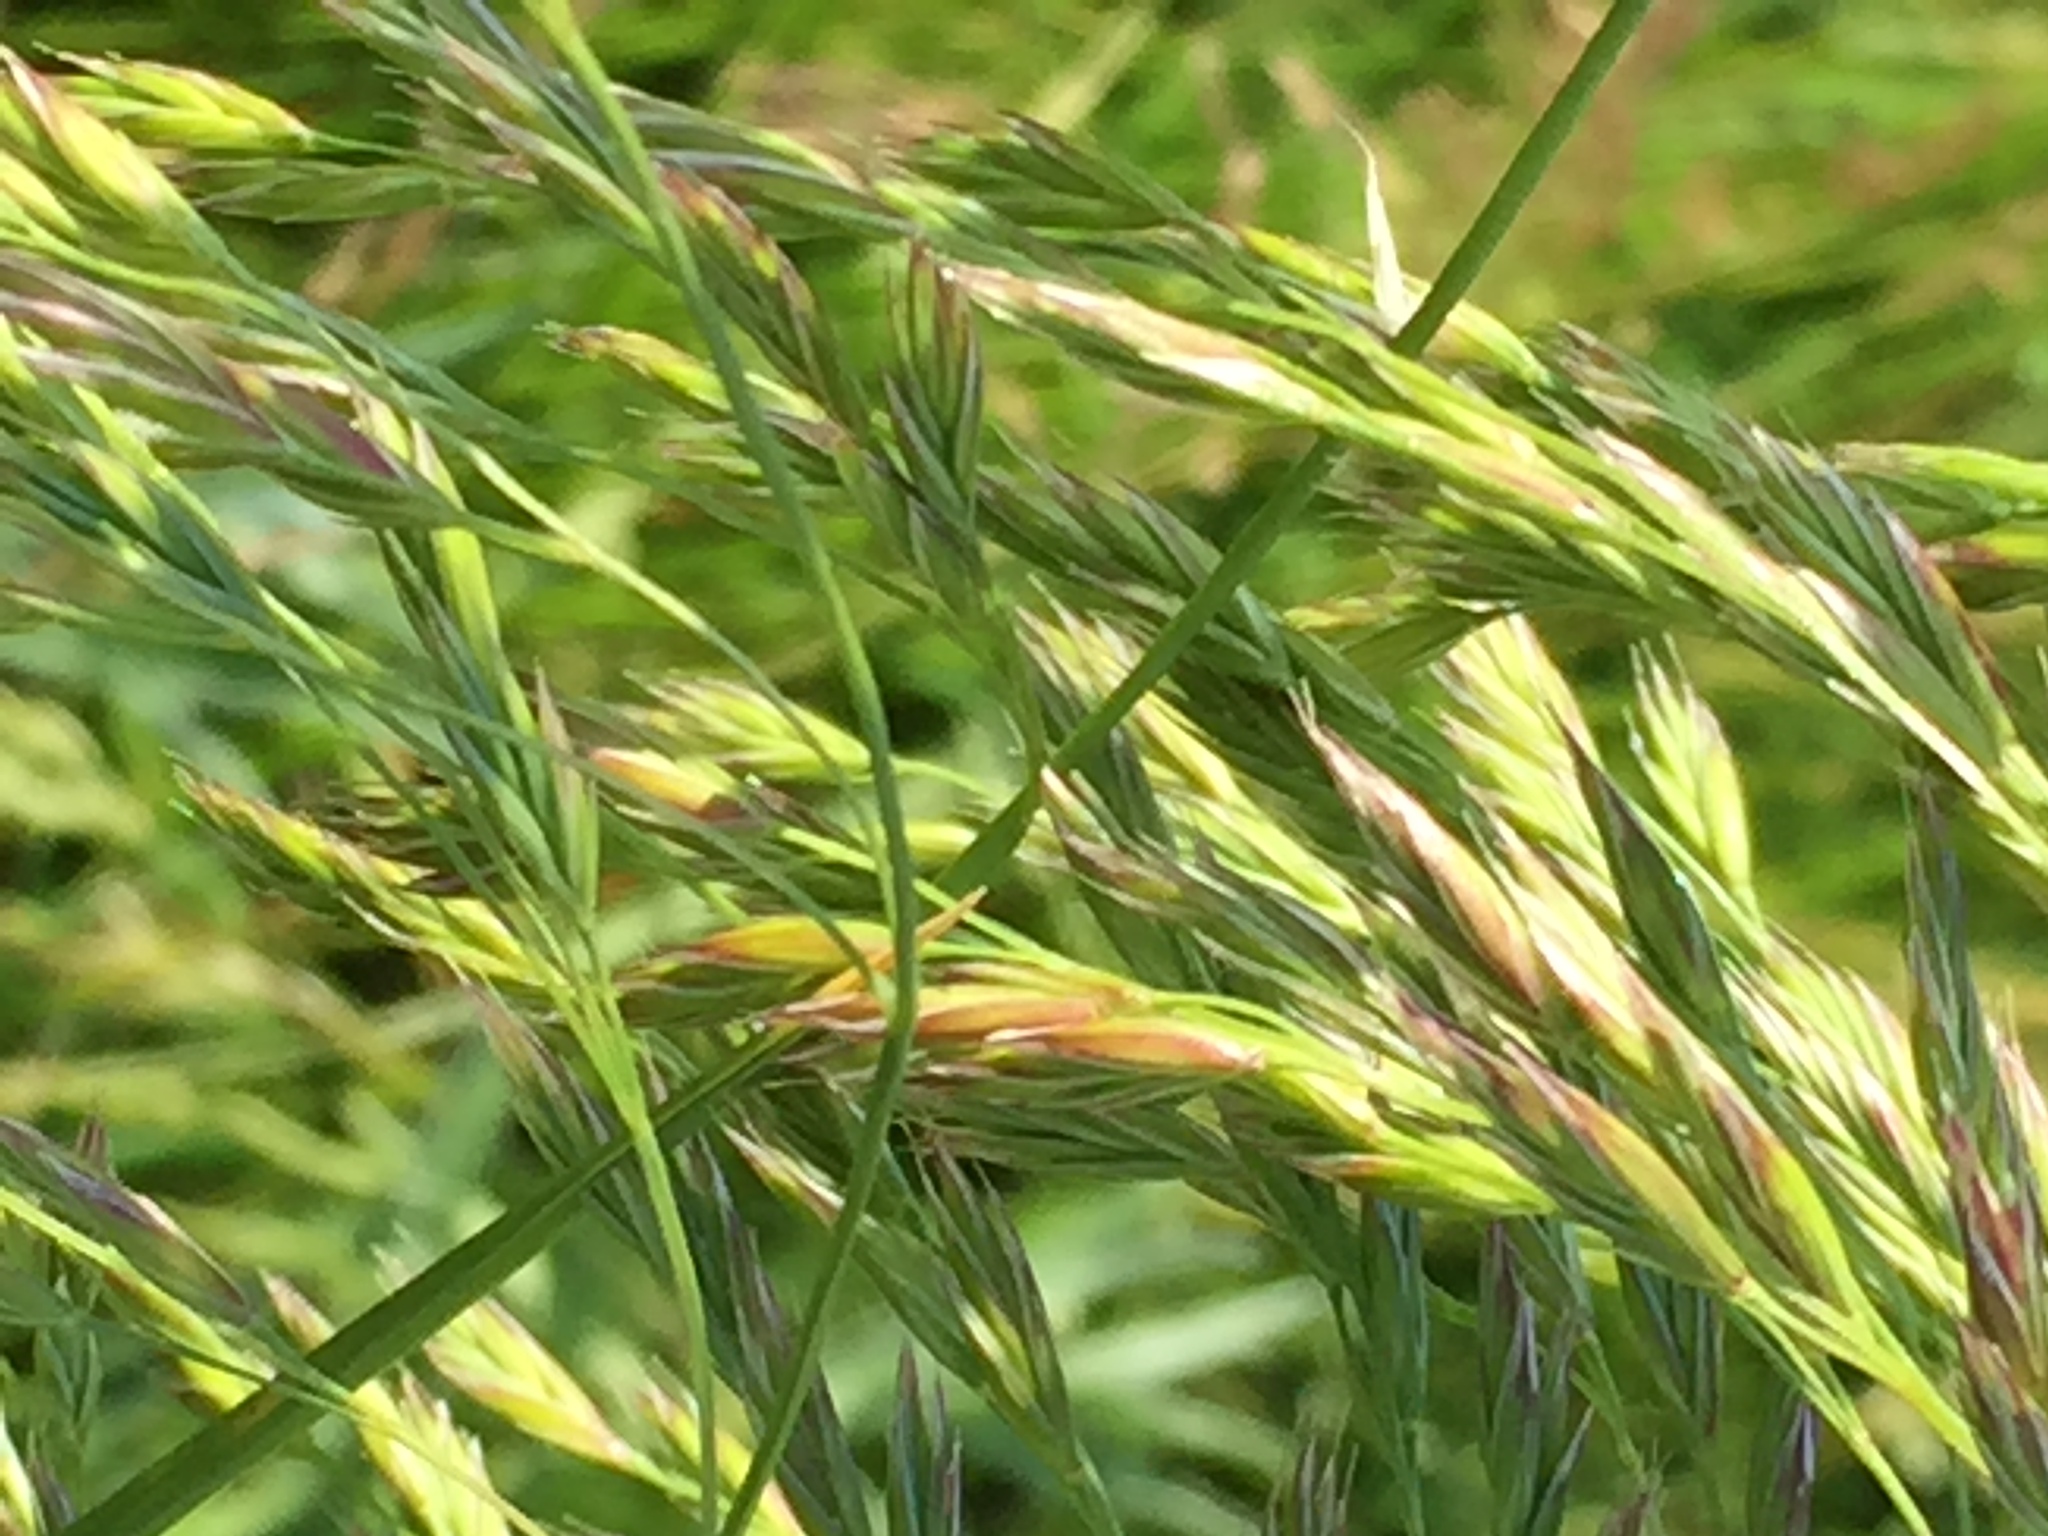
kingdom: Plantae
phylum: Tracheophyta
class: Liliopsida
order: Poales
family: Poaceae
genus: Lolium
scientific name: Lolium arundinaceum
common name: Reed fescue
